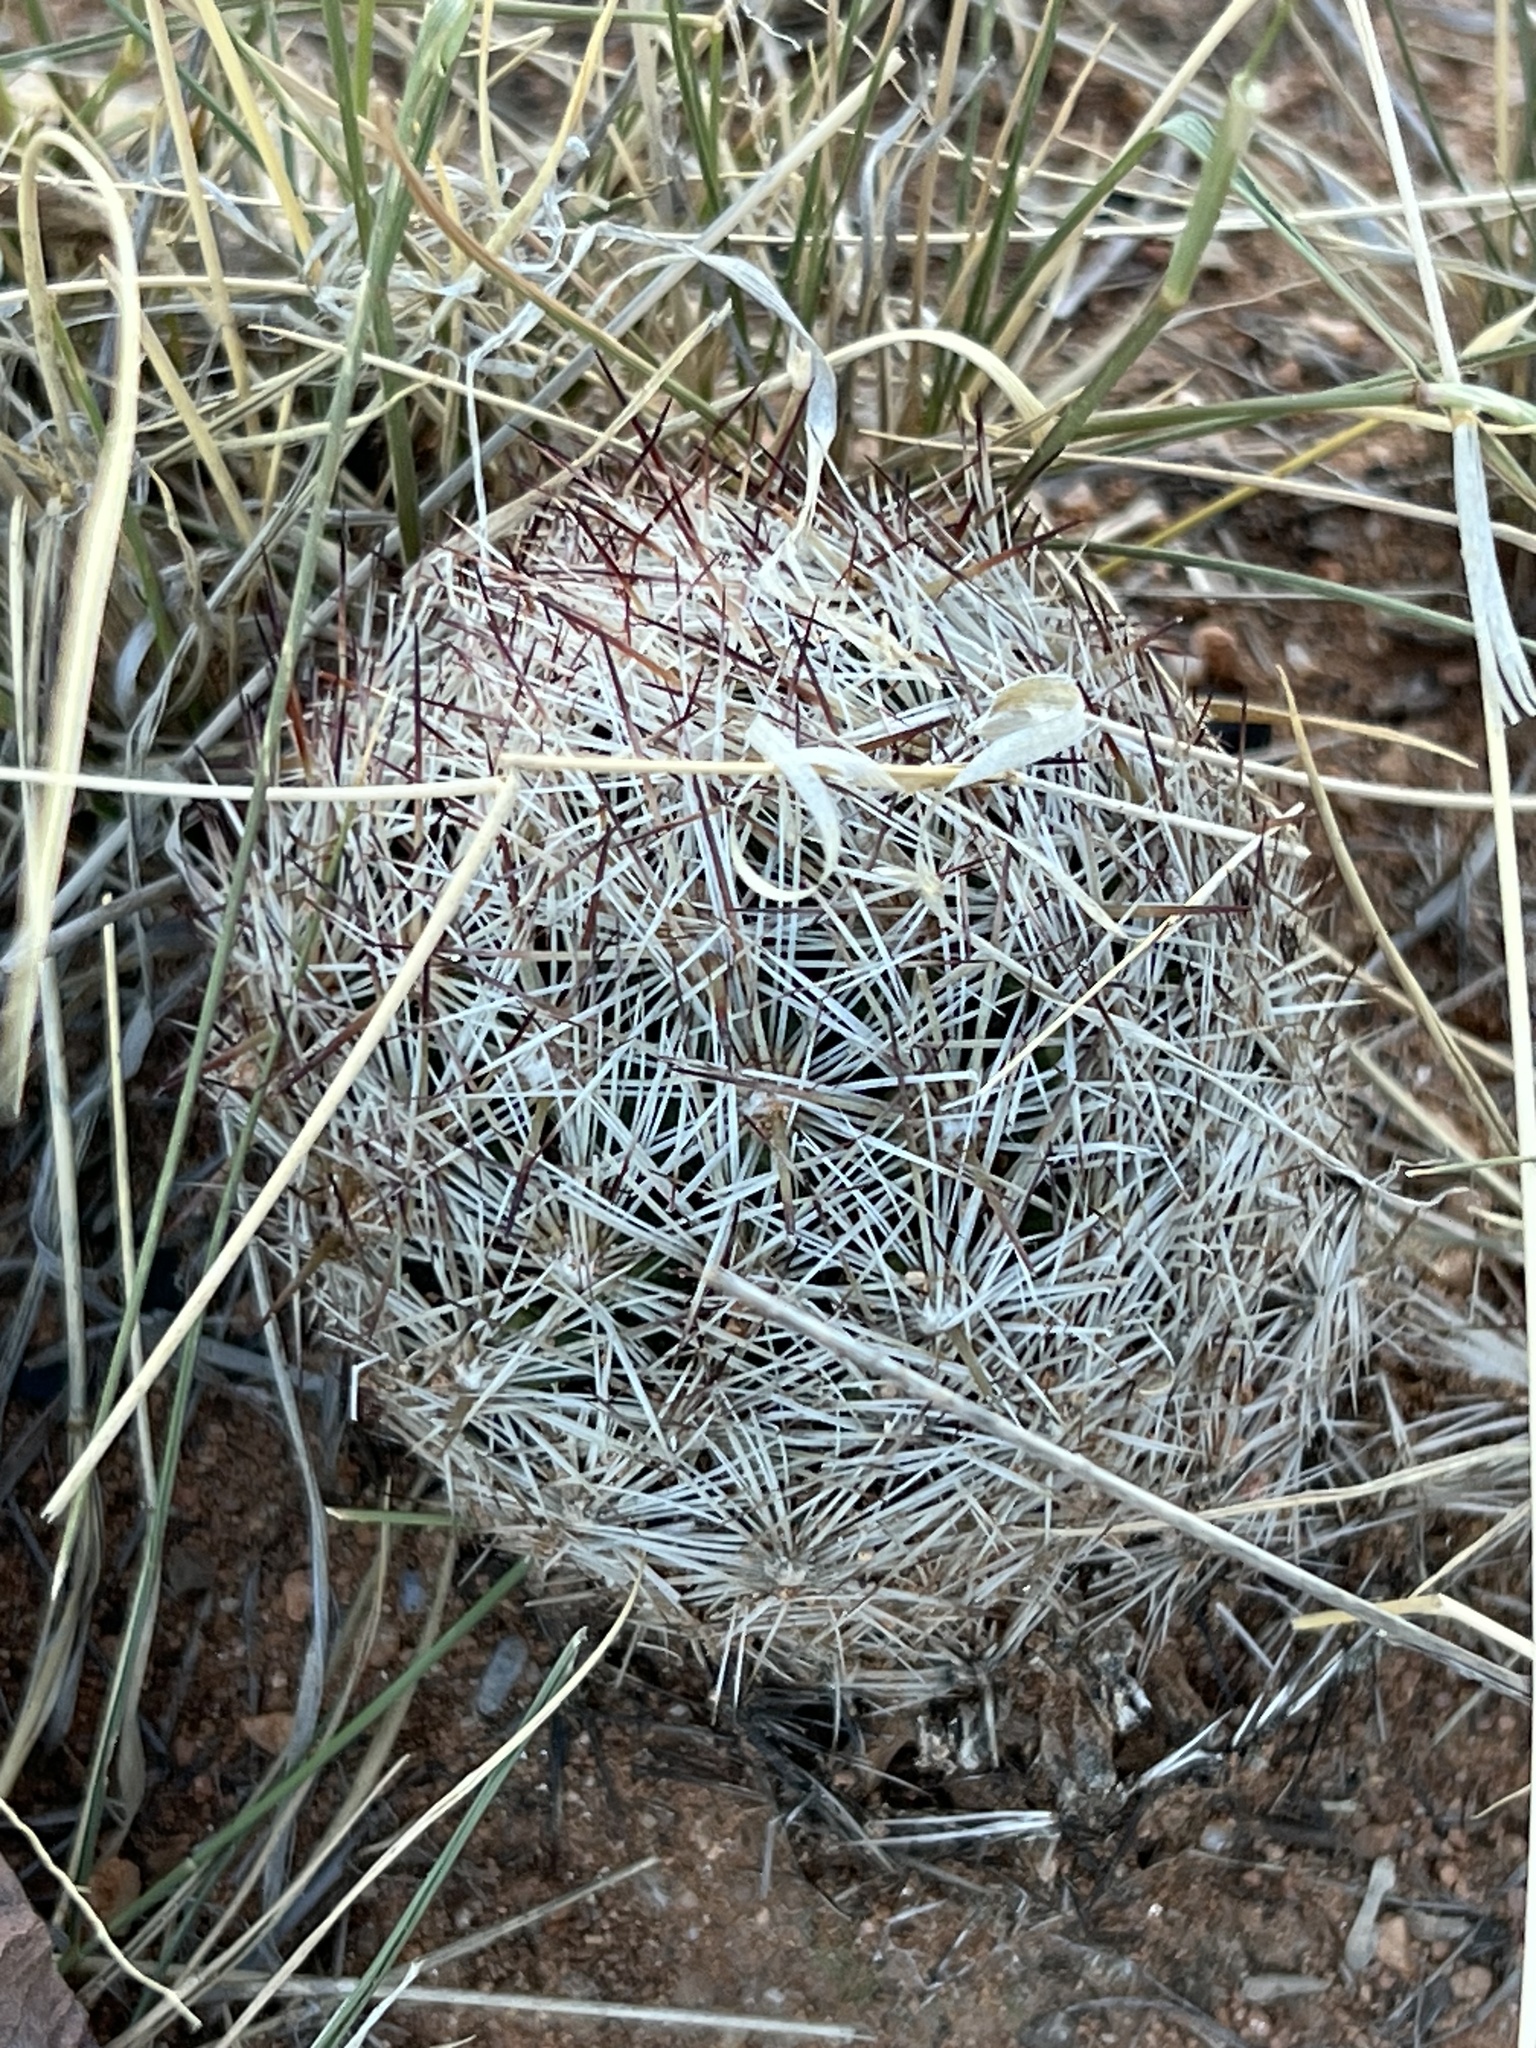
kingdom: Plantae
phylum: Tracheophyta
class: Magnoliopsida
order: Caryophyllales
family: Cactaceae
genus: Pelecyphora
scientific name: Pelecyphora vivipara
